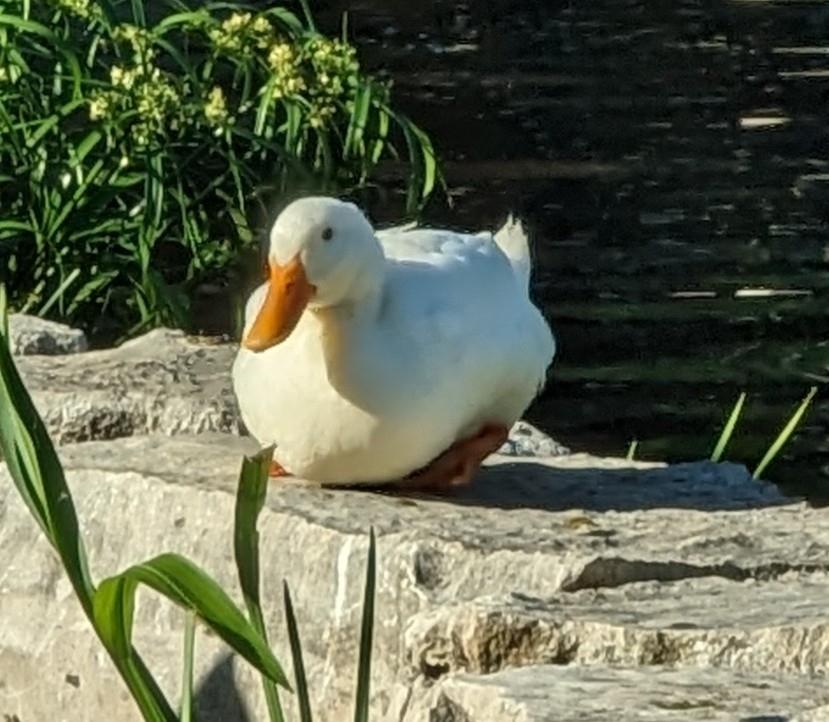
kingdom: Animalia
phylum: Chordata
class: Aves
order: Anseriformes
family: Anatidae
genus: Anas
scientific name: Anas platyrhynchos
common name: Mallard
